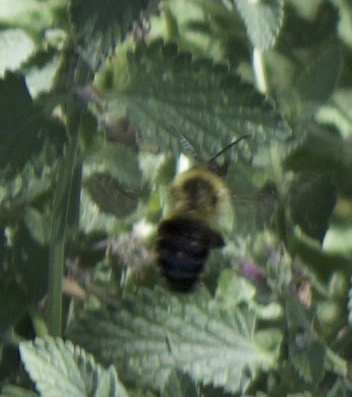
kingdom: Animalia
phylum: Arthropoda
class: Insecta
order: Hymenoptera
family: Apidae
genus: Bombus
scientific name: Bombus impatiens
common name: Common eastern bumble bee
